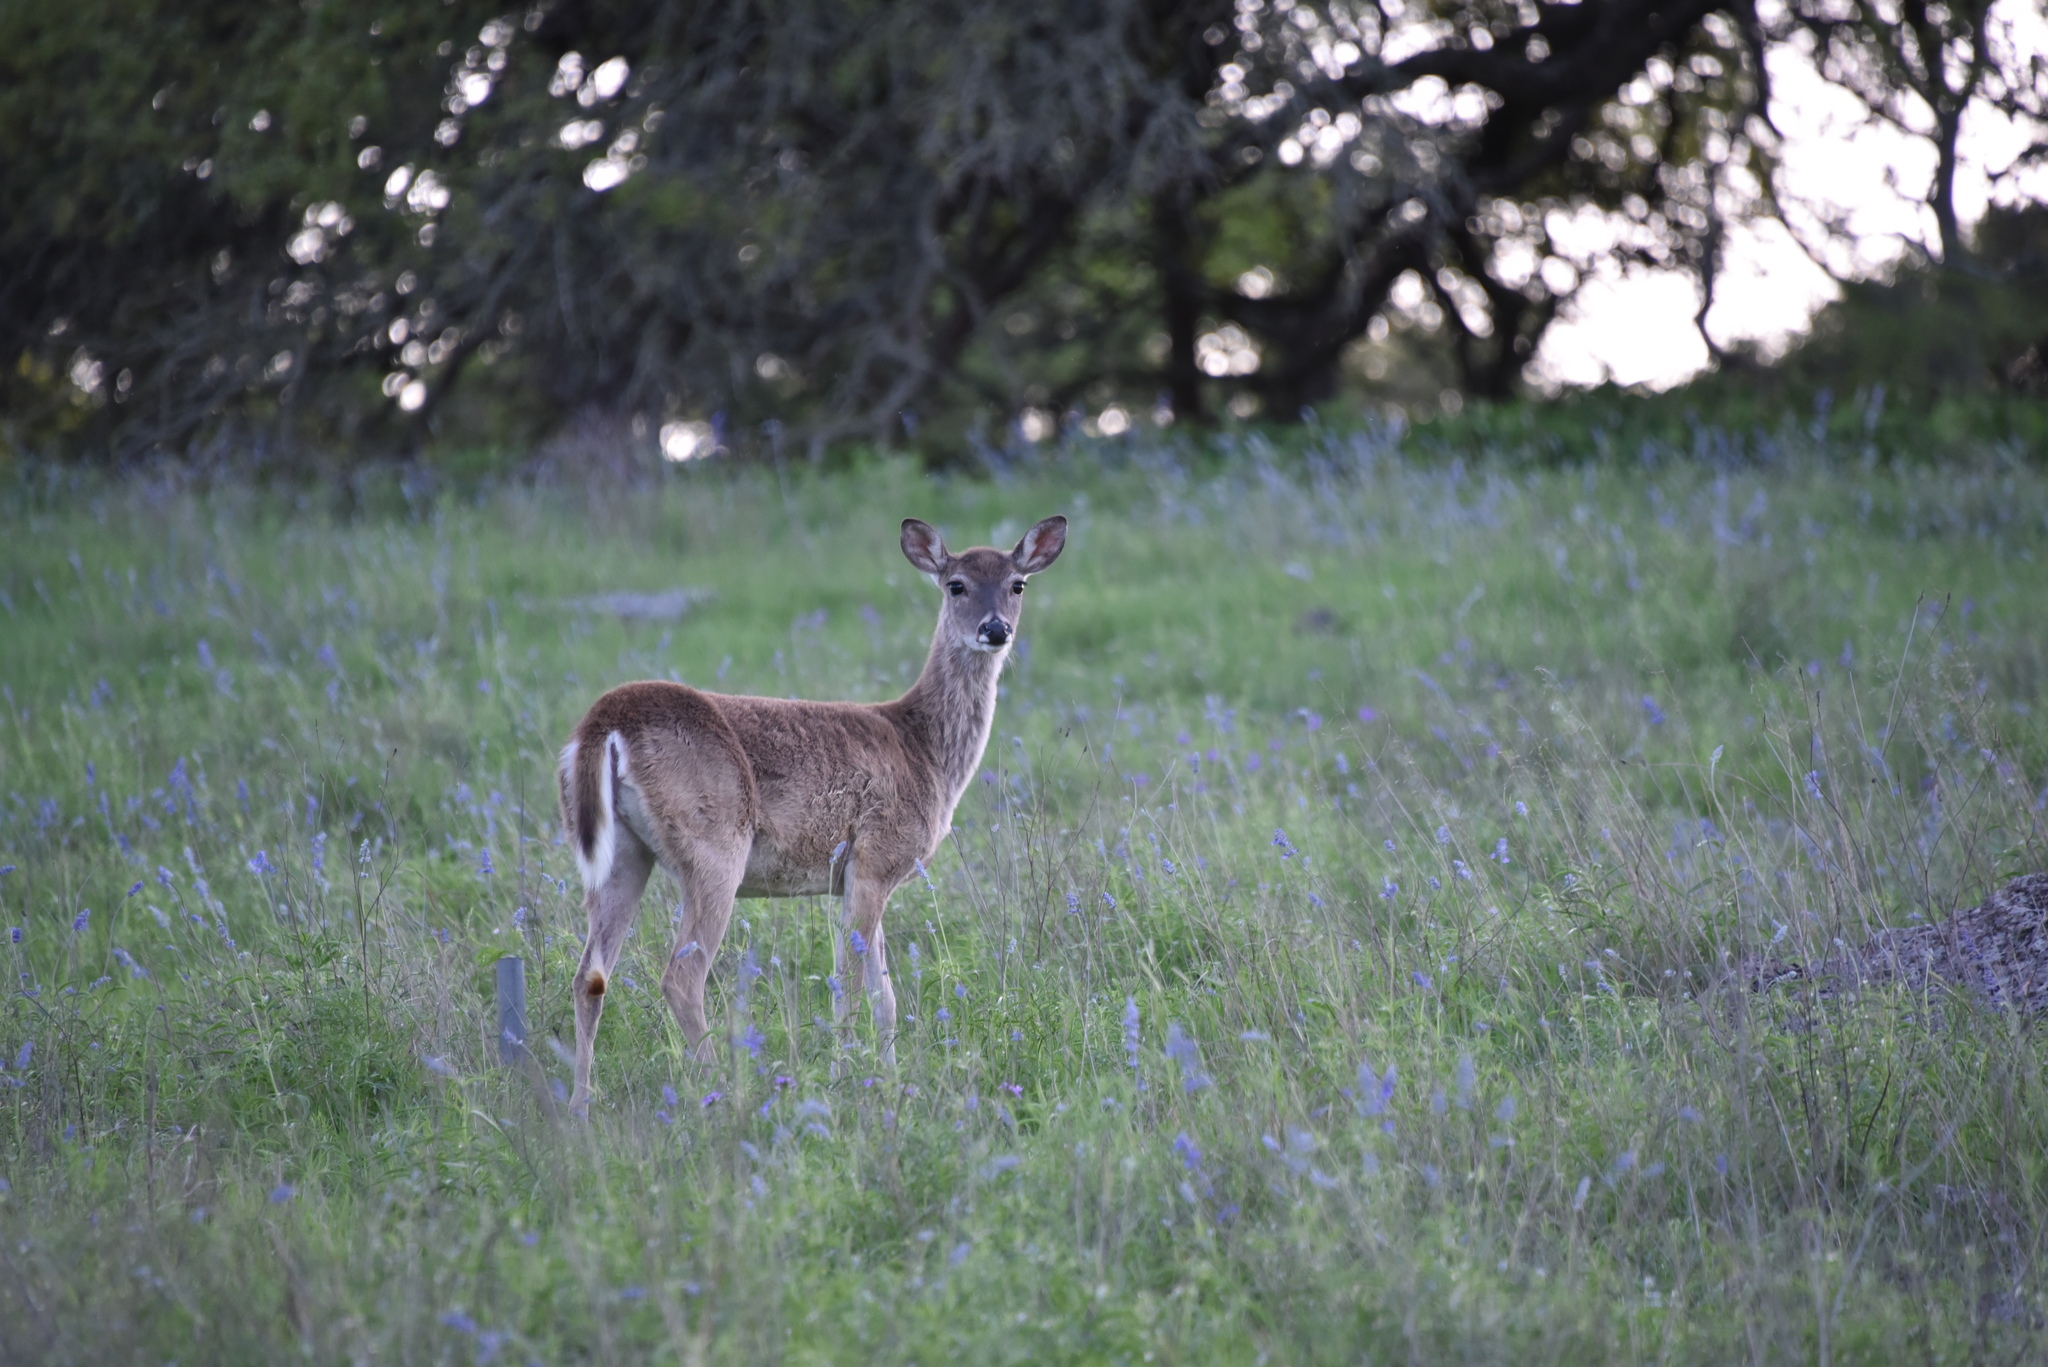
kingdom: Animalia
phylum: Chordata
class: Mammalia
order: Artiodactyla
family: Cervidae
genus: Odocoileus
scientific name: Odocoileus virginianus
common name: White-tailed deer
